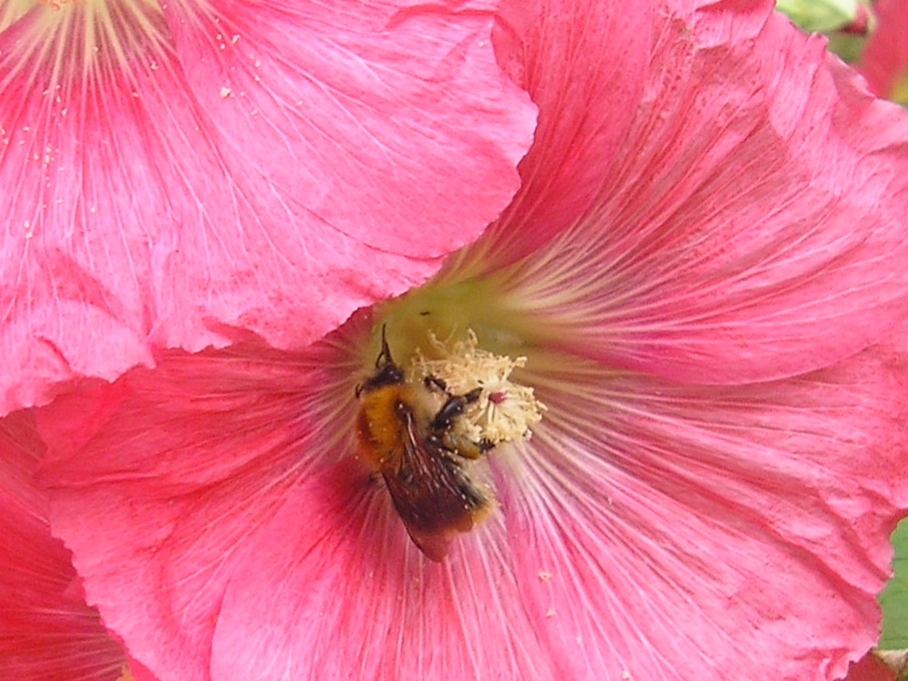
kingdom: Animalia
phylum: Arthropoda
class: Insecta
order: Hymenoptera
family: Apidae
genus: Bombus
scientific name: Bombus pascuorum
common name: Common carder bee
